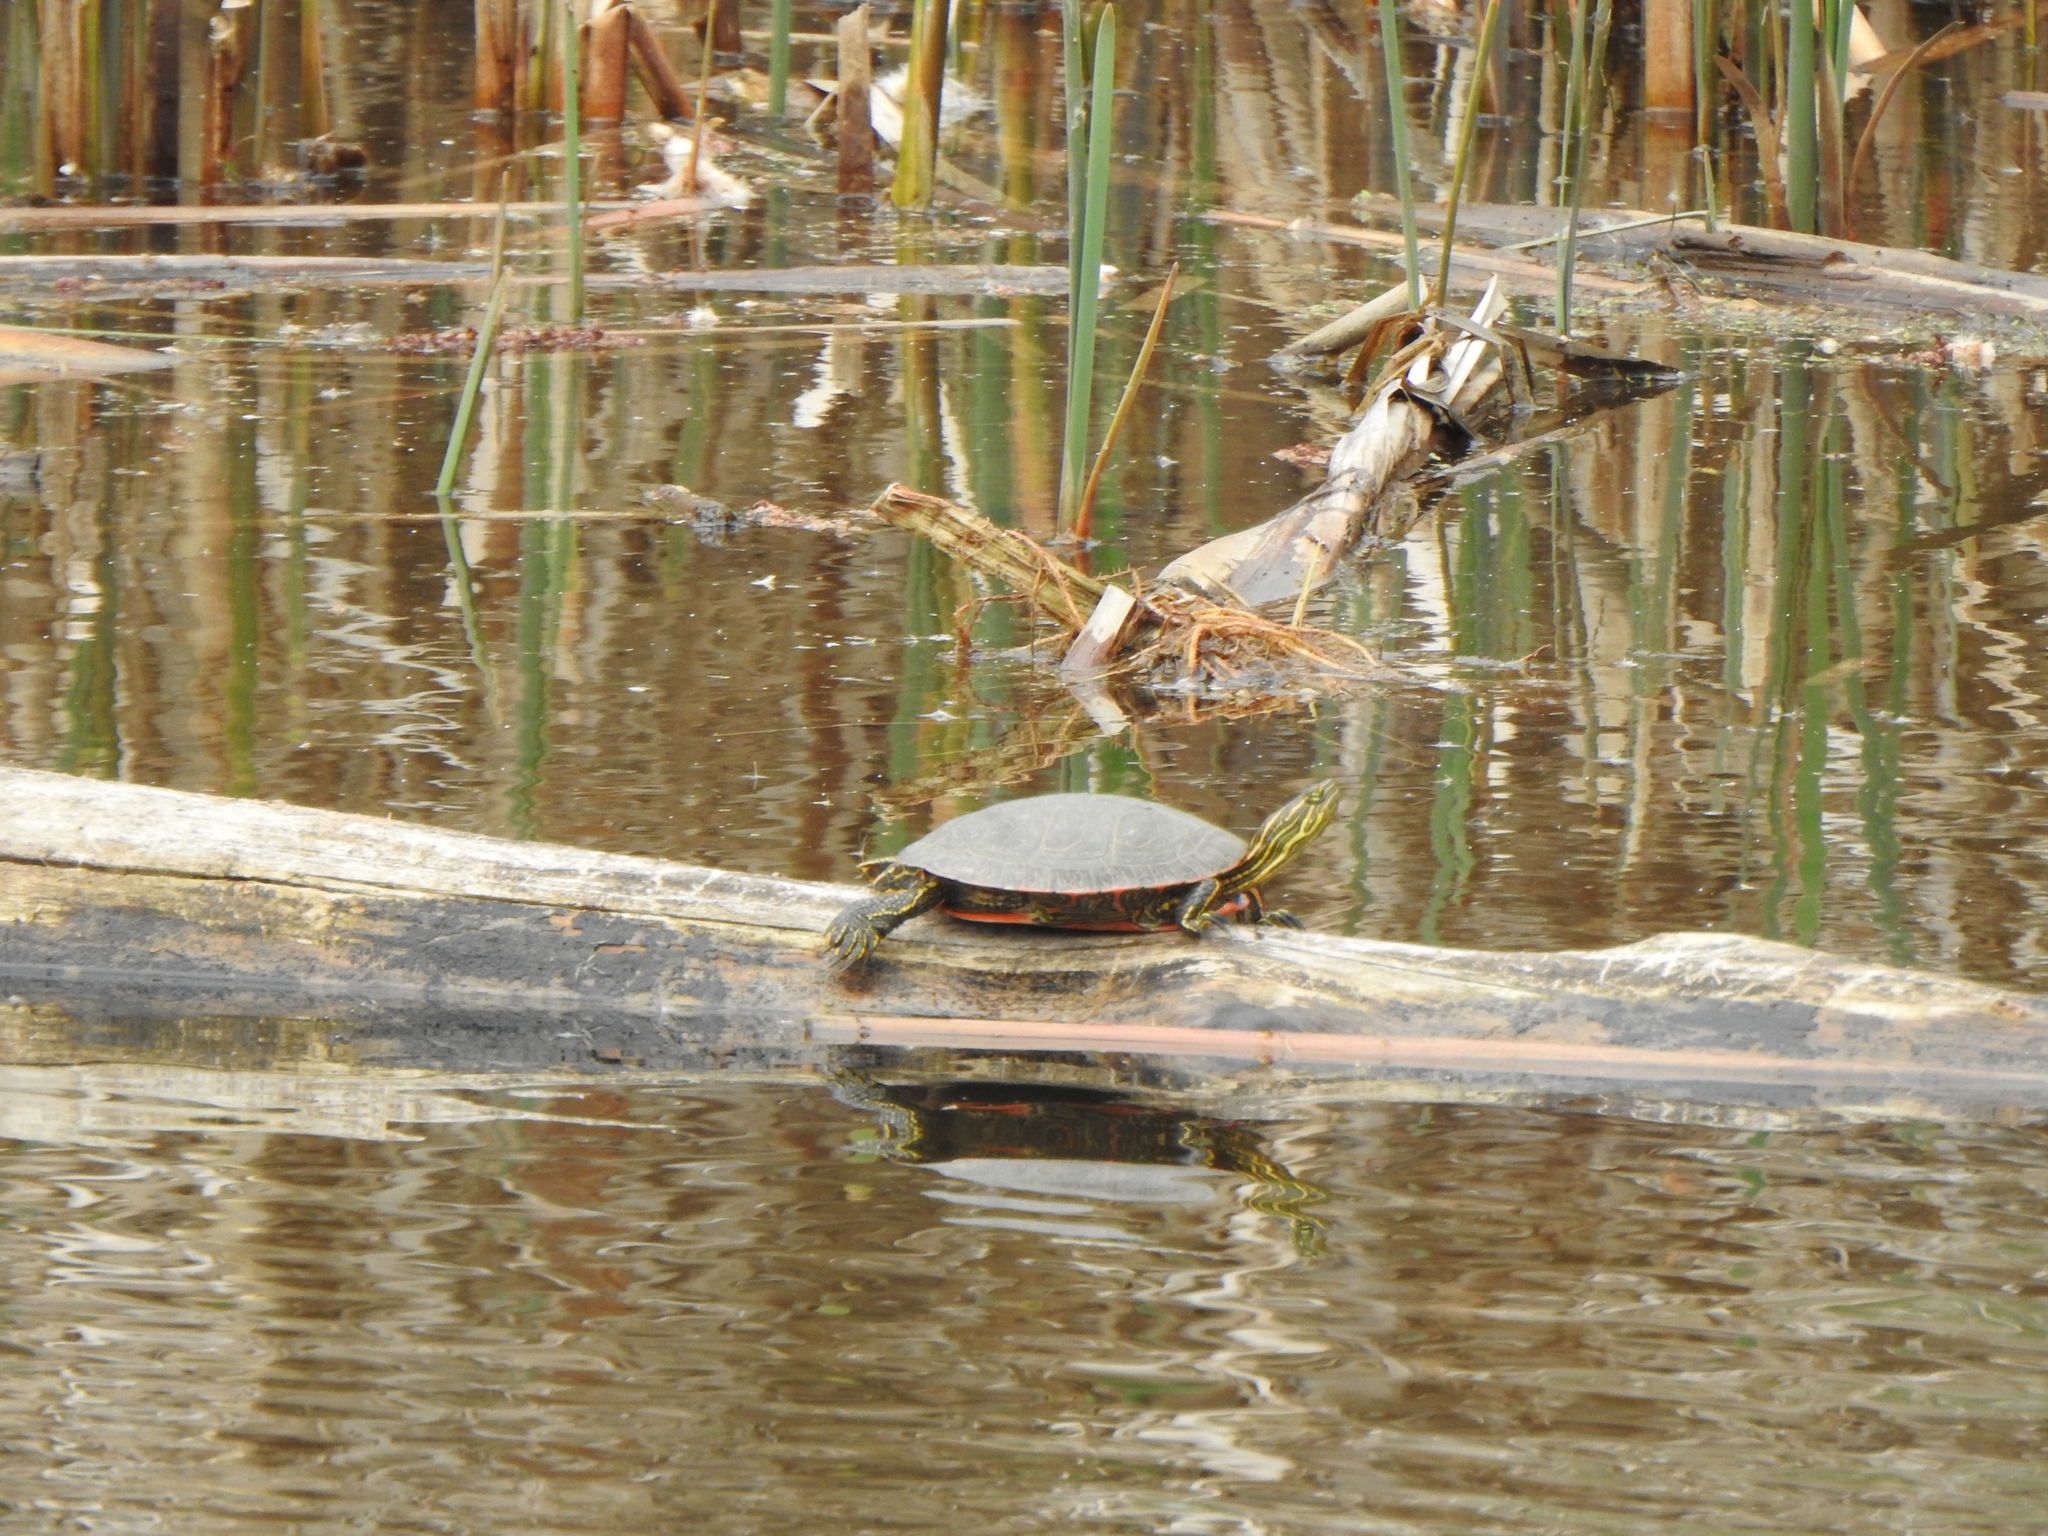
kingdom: Animalia
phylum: Chordata
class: Testudines
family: Emydidae
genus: Chrysemys
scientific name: Chrysemys picta
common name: Painted turtle
